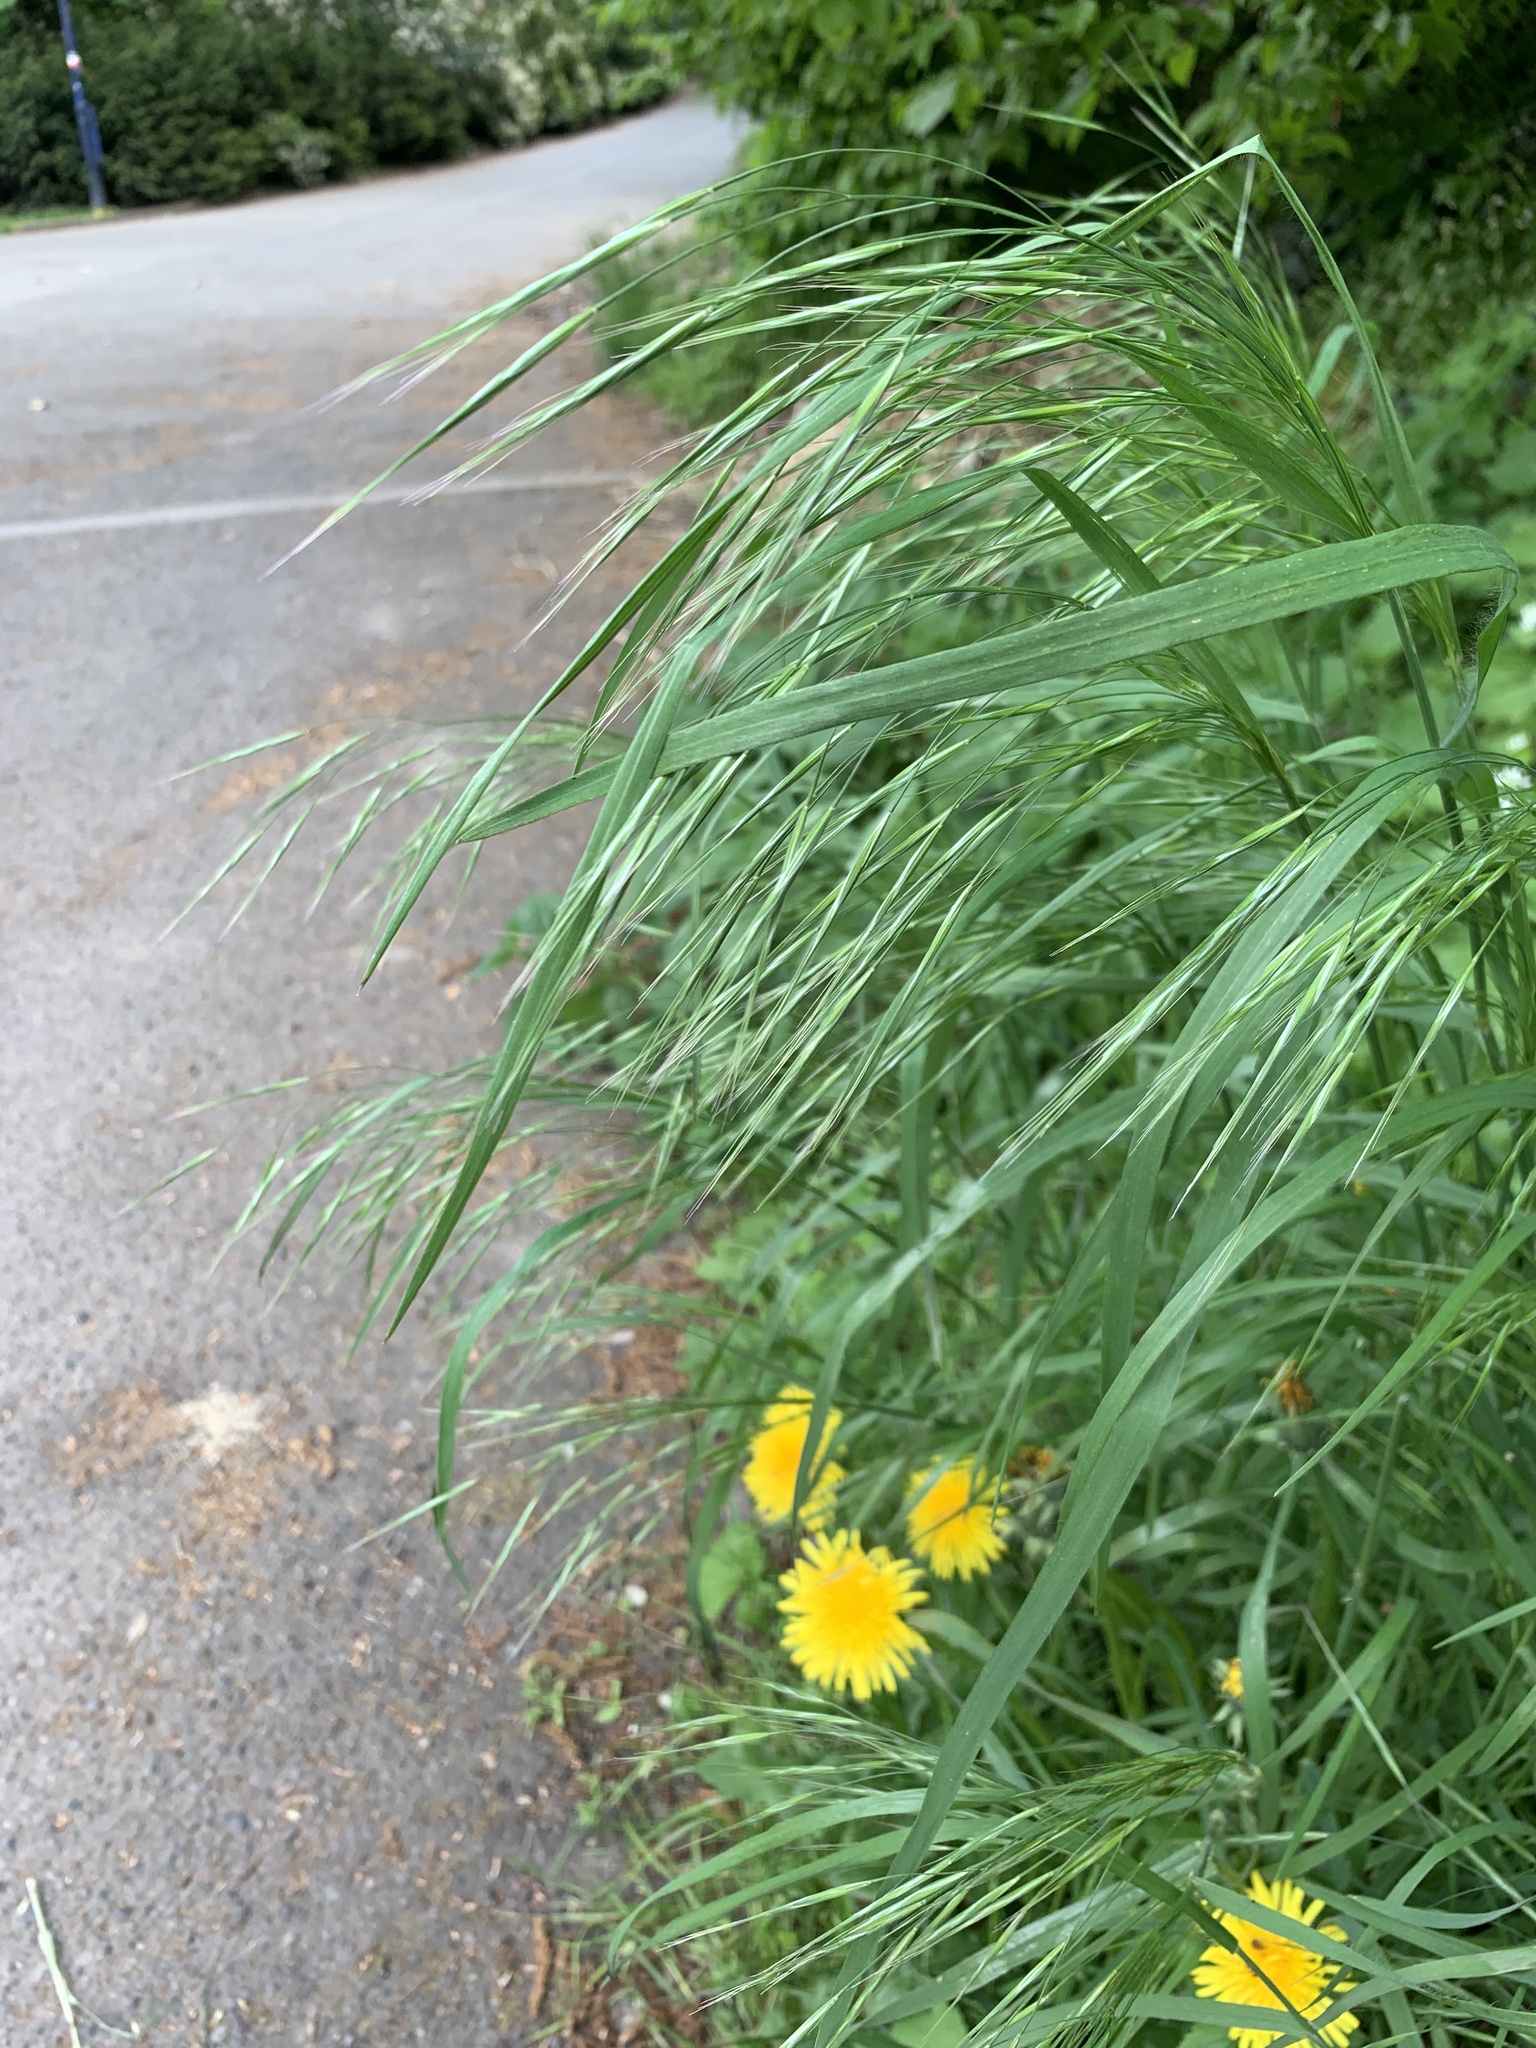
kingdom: Plantae
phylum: Tracheophyta
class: Liliopsida
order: Poales
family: Poaceae
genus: Bromus
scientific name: Bromus sterilis
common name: Poverty brome
